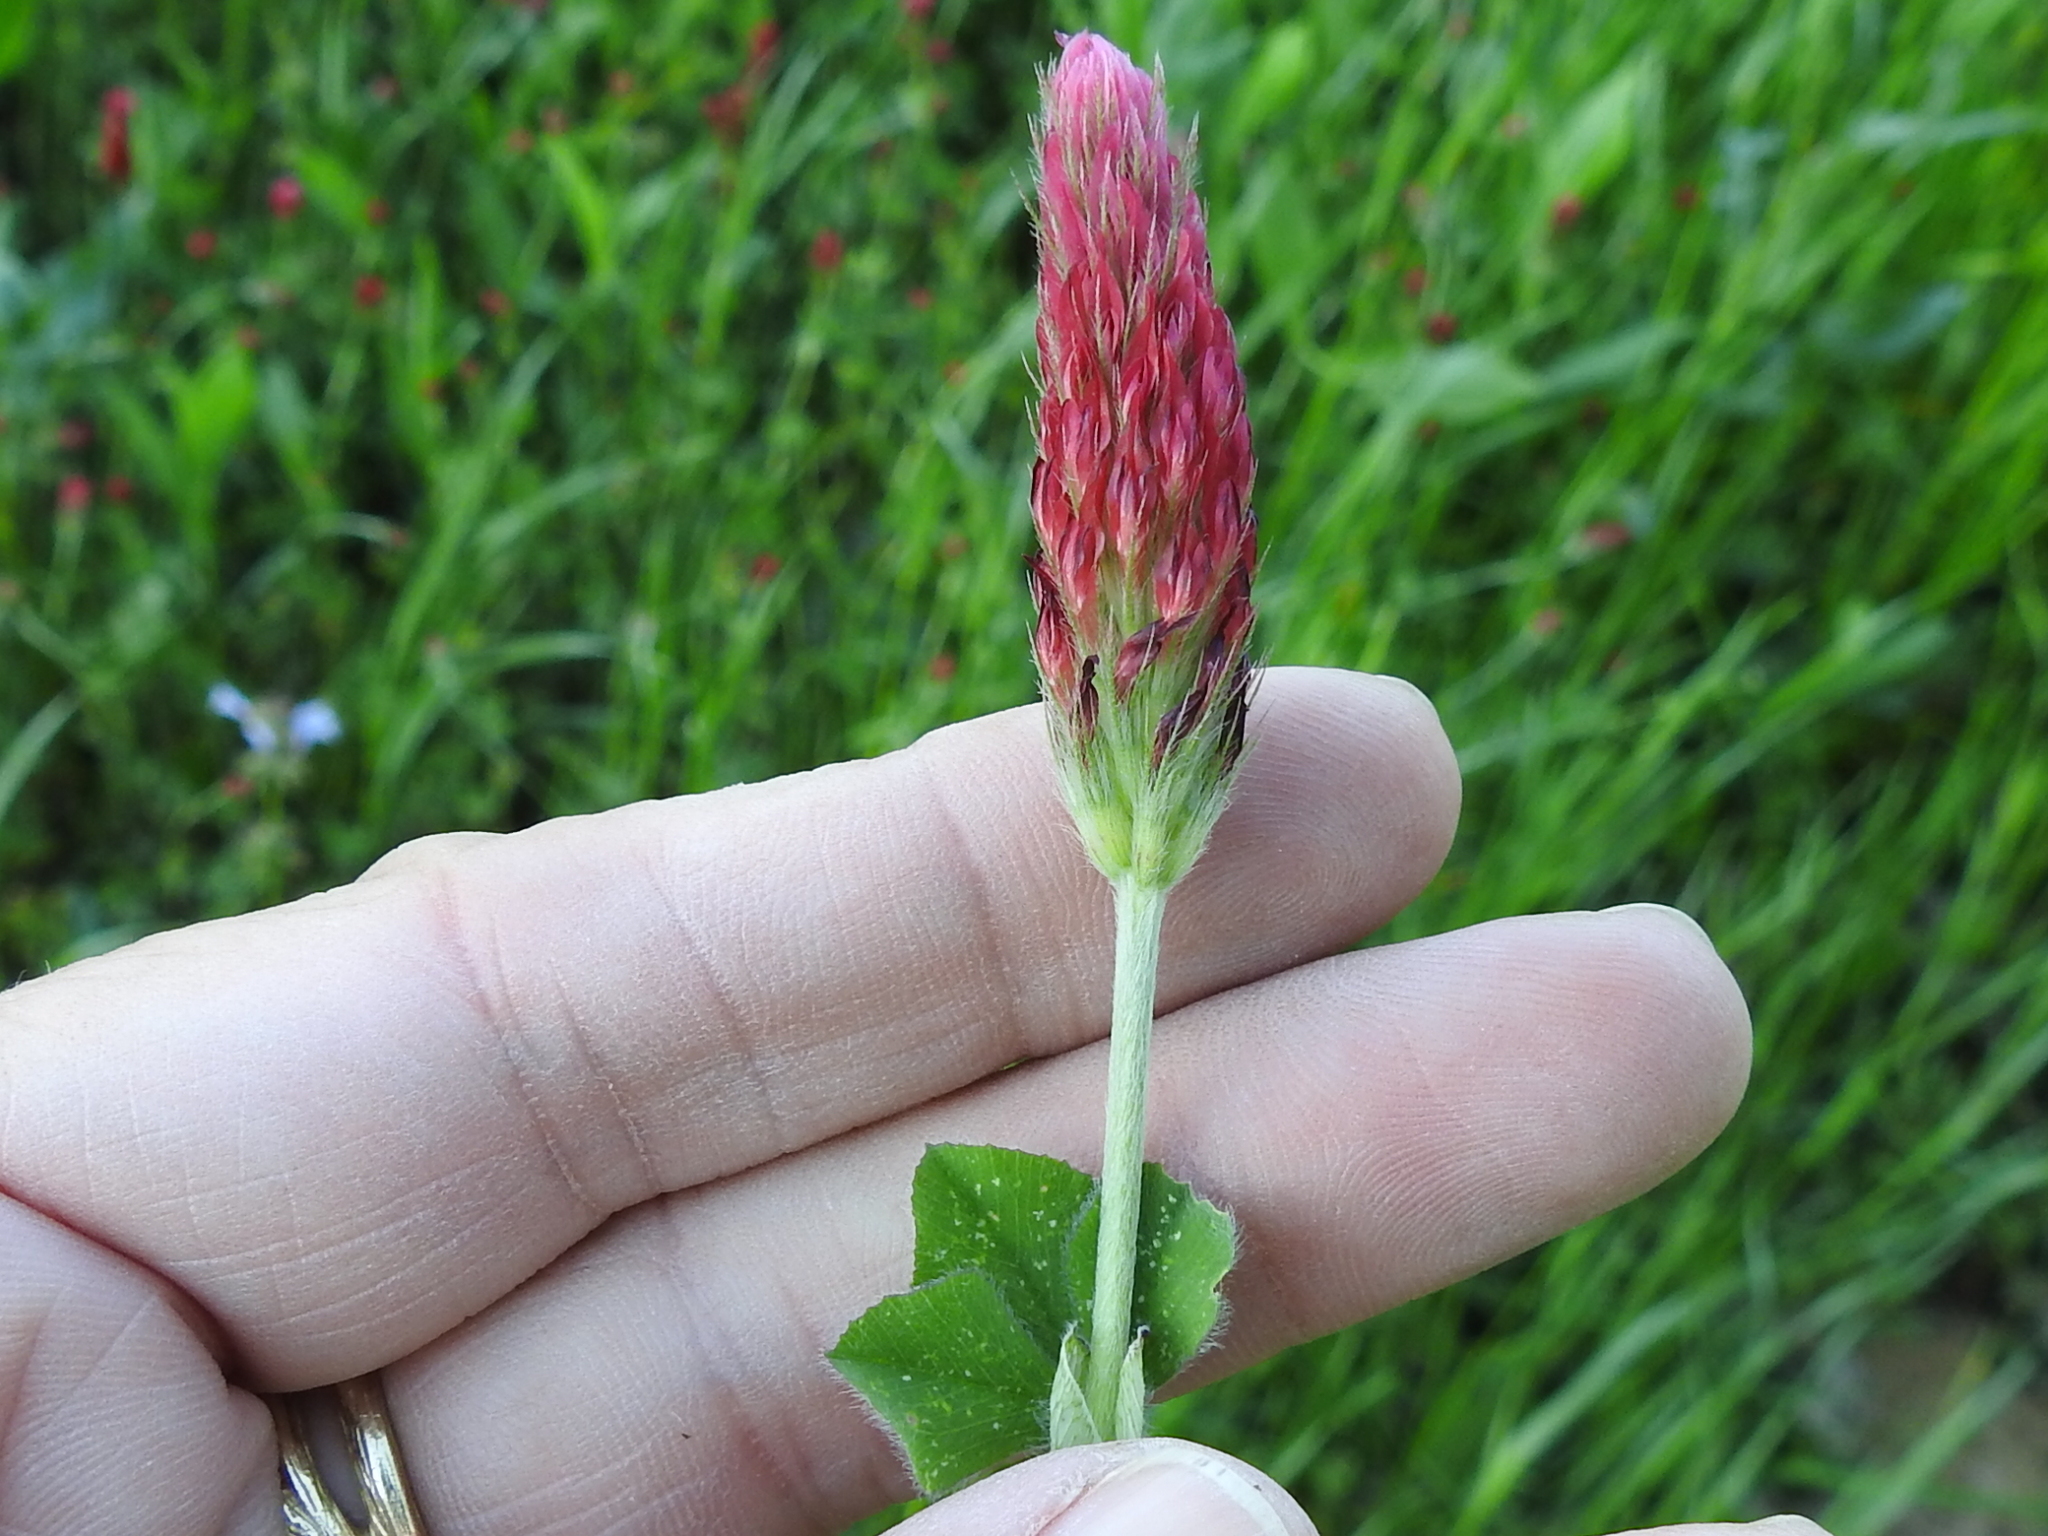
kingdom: Plantae
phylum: Tracheophyta
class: Magnoliopsida
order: Fabales
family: Fabaceae
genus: Trifolium
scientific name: Trifolium incarnatum
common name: Crimson clover
